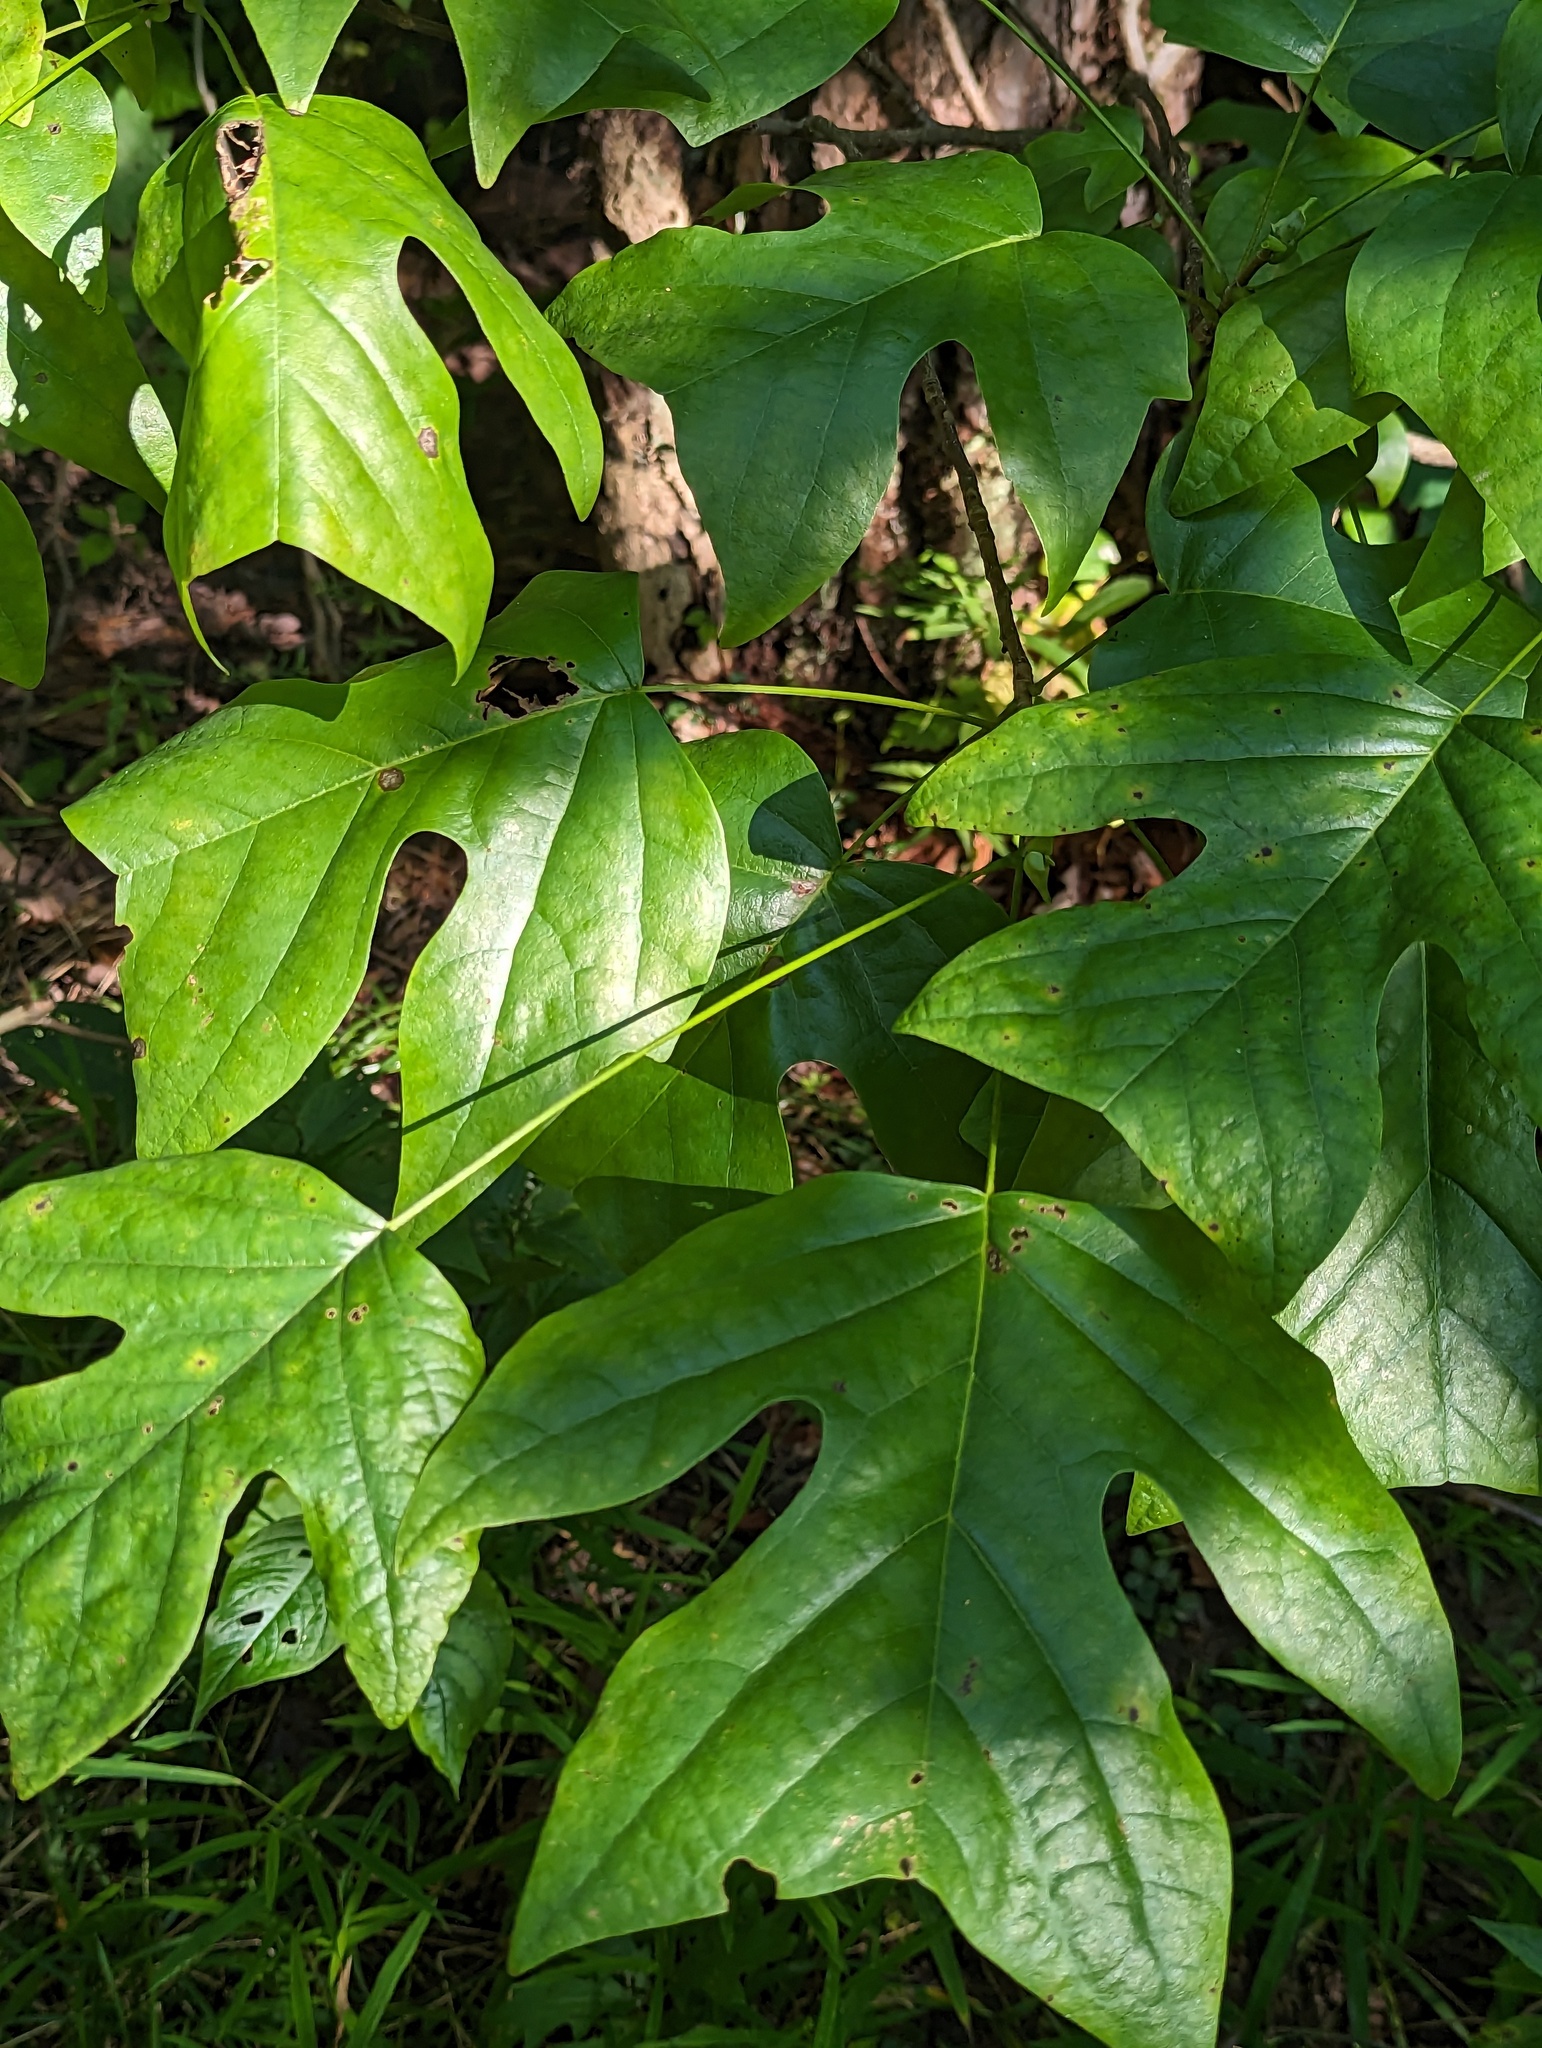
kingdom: Plantae
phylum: Tracheophyta
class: Magnoliopsida
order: Magnoliales
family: Magnoliaceae
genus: Liriodendron
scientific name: Liriodendron tulipifera
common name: Tulip tree
